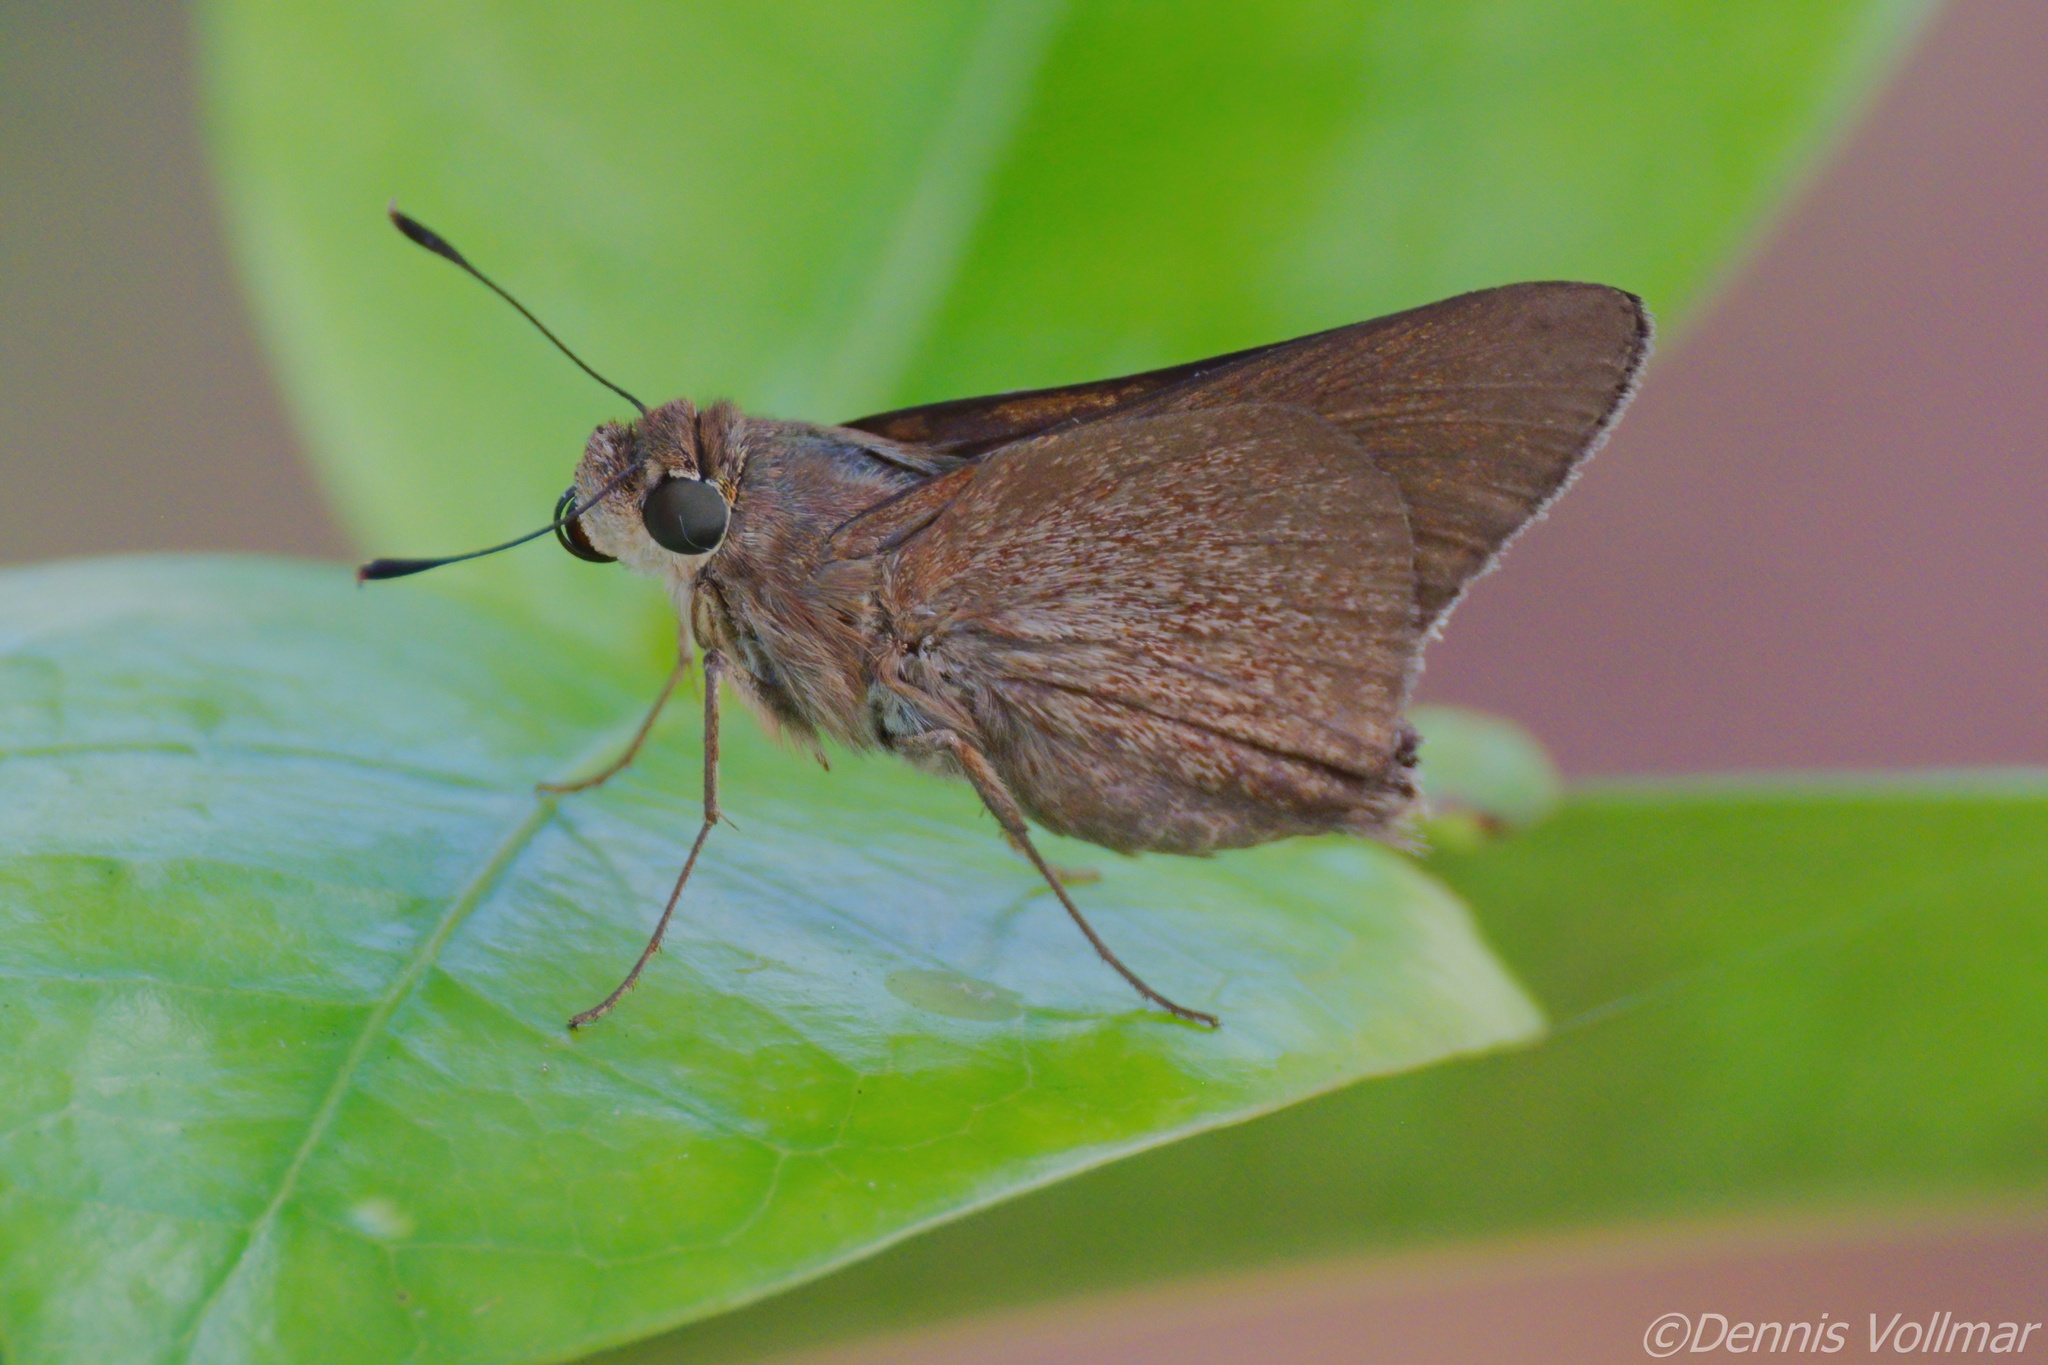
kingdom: Animalia
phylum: Arthropoda
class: Insecta
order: Lepidoptera
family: Hesperiidae
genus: Asbolis
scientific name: Asbolis capucinus
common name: Monk skipper
